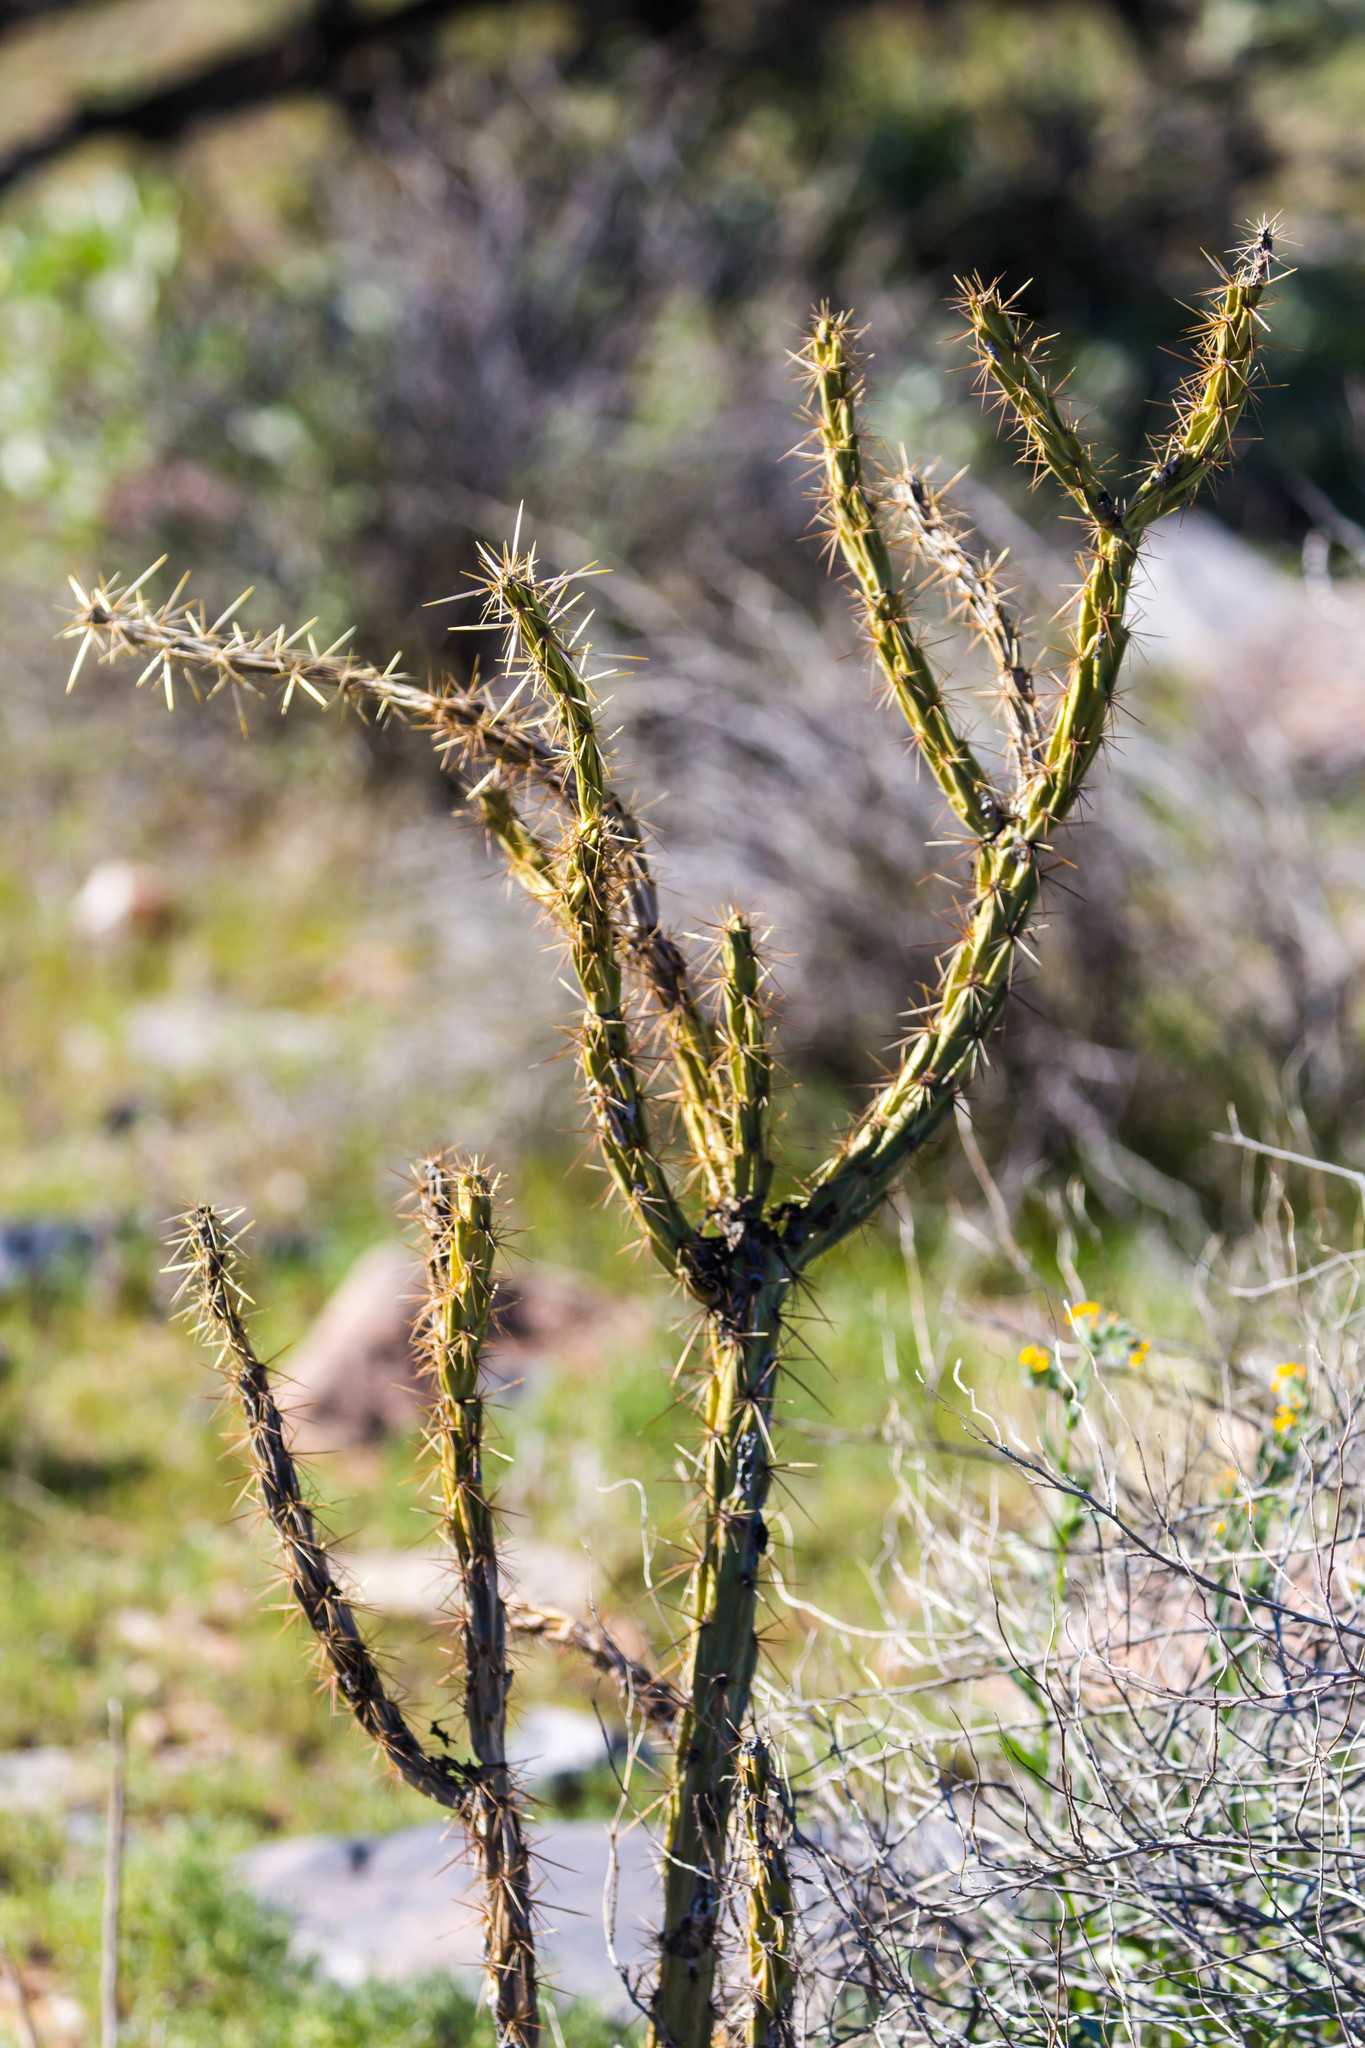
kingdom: Plantae
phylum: Tracheophyta
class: Magnoliopsida
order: Caryophyllales
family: Cactaceae
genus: Cylindropuntia
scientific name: Cylindropuntia acanthocarpa
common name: Buckhorn cholla
